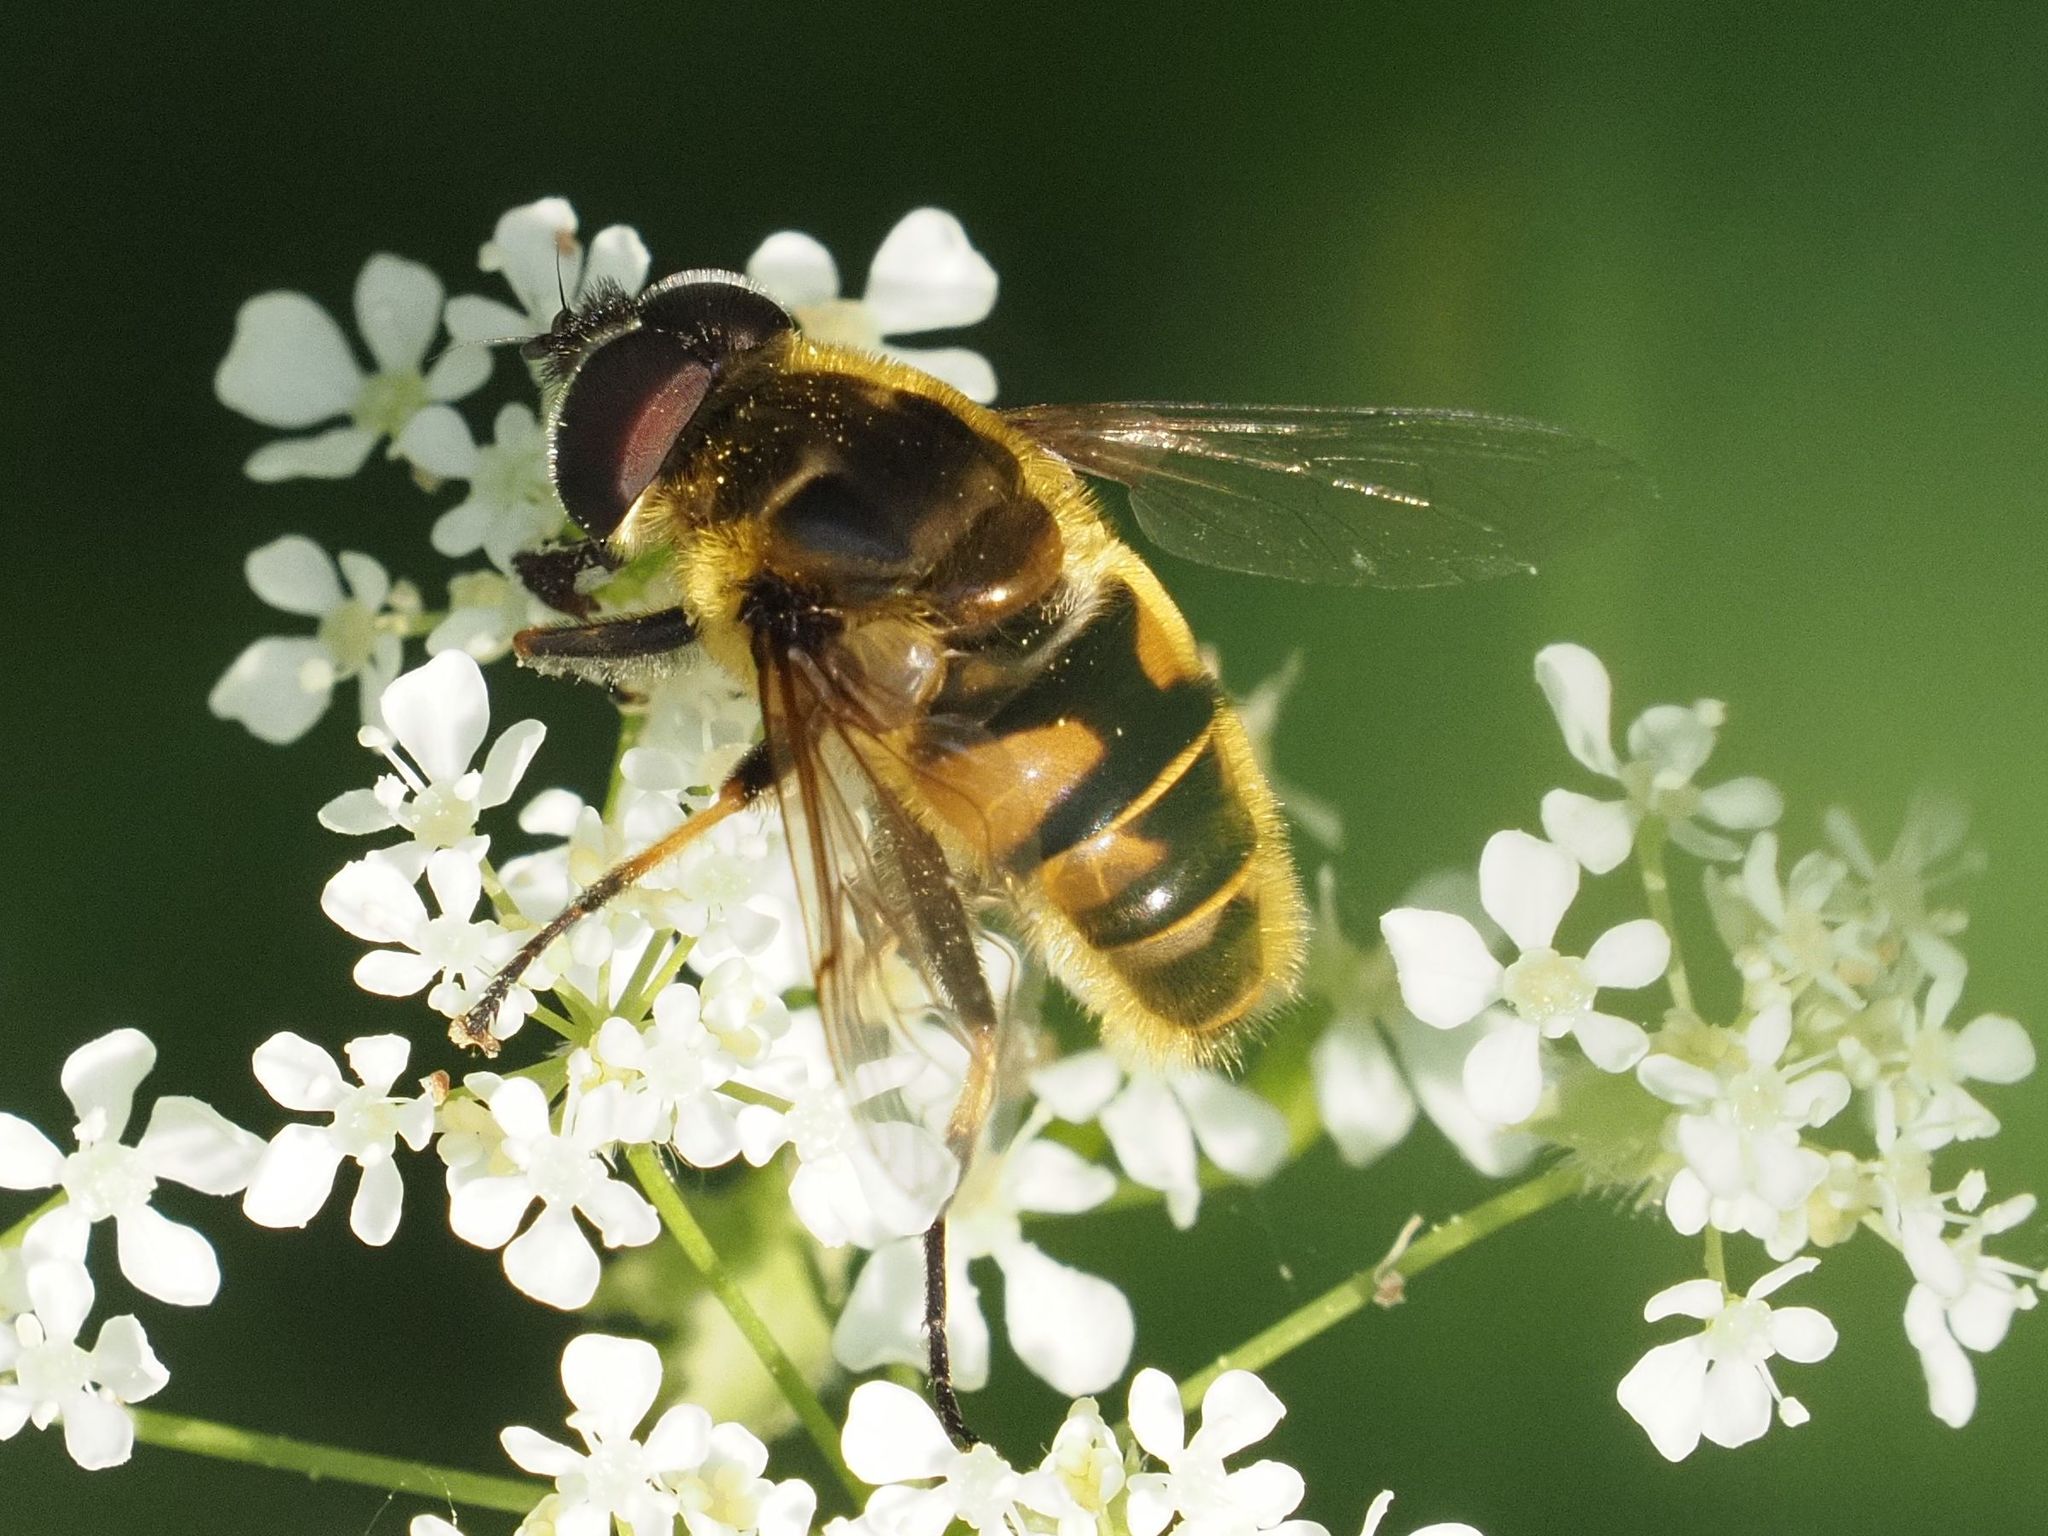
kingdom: Animalia
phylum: Arthropoda
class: Insecta
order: Diptera
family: Syrphidae
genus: Myathropa
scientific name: Myathropa florea
